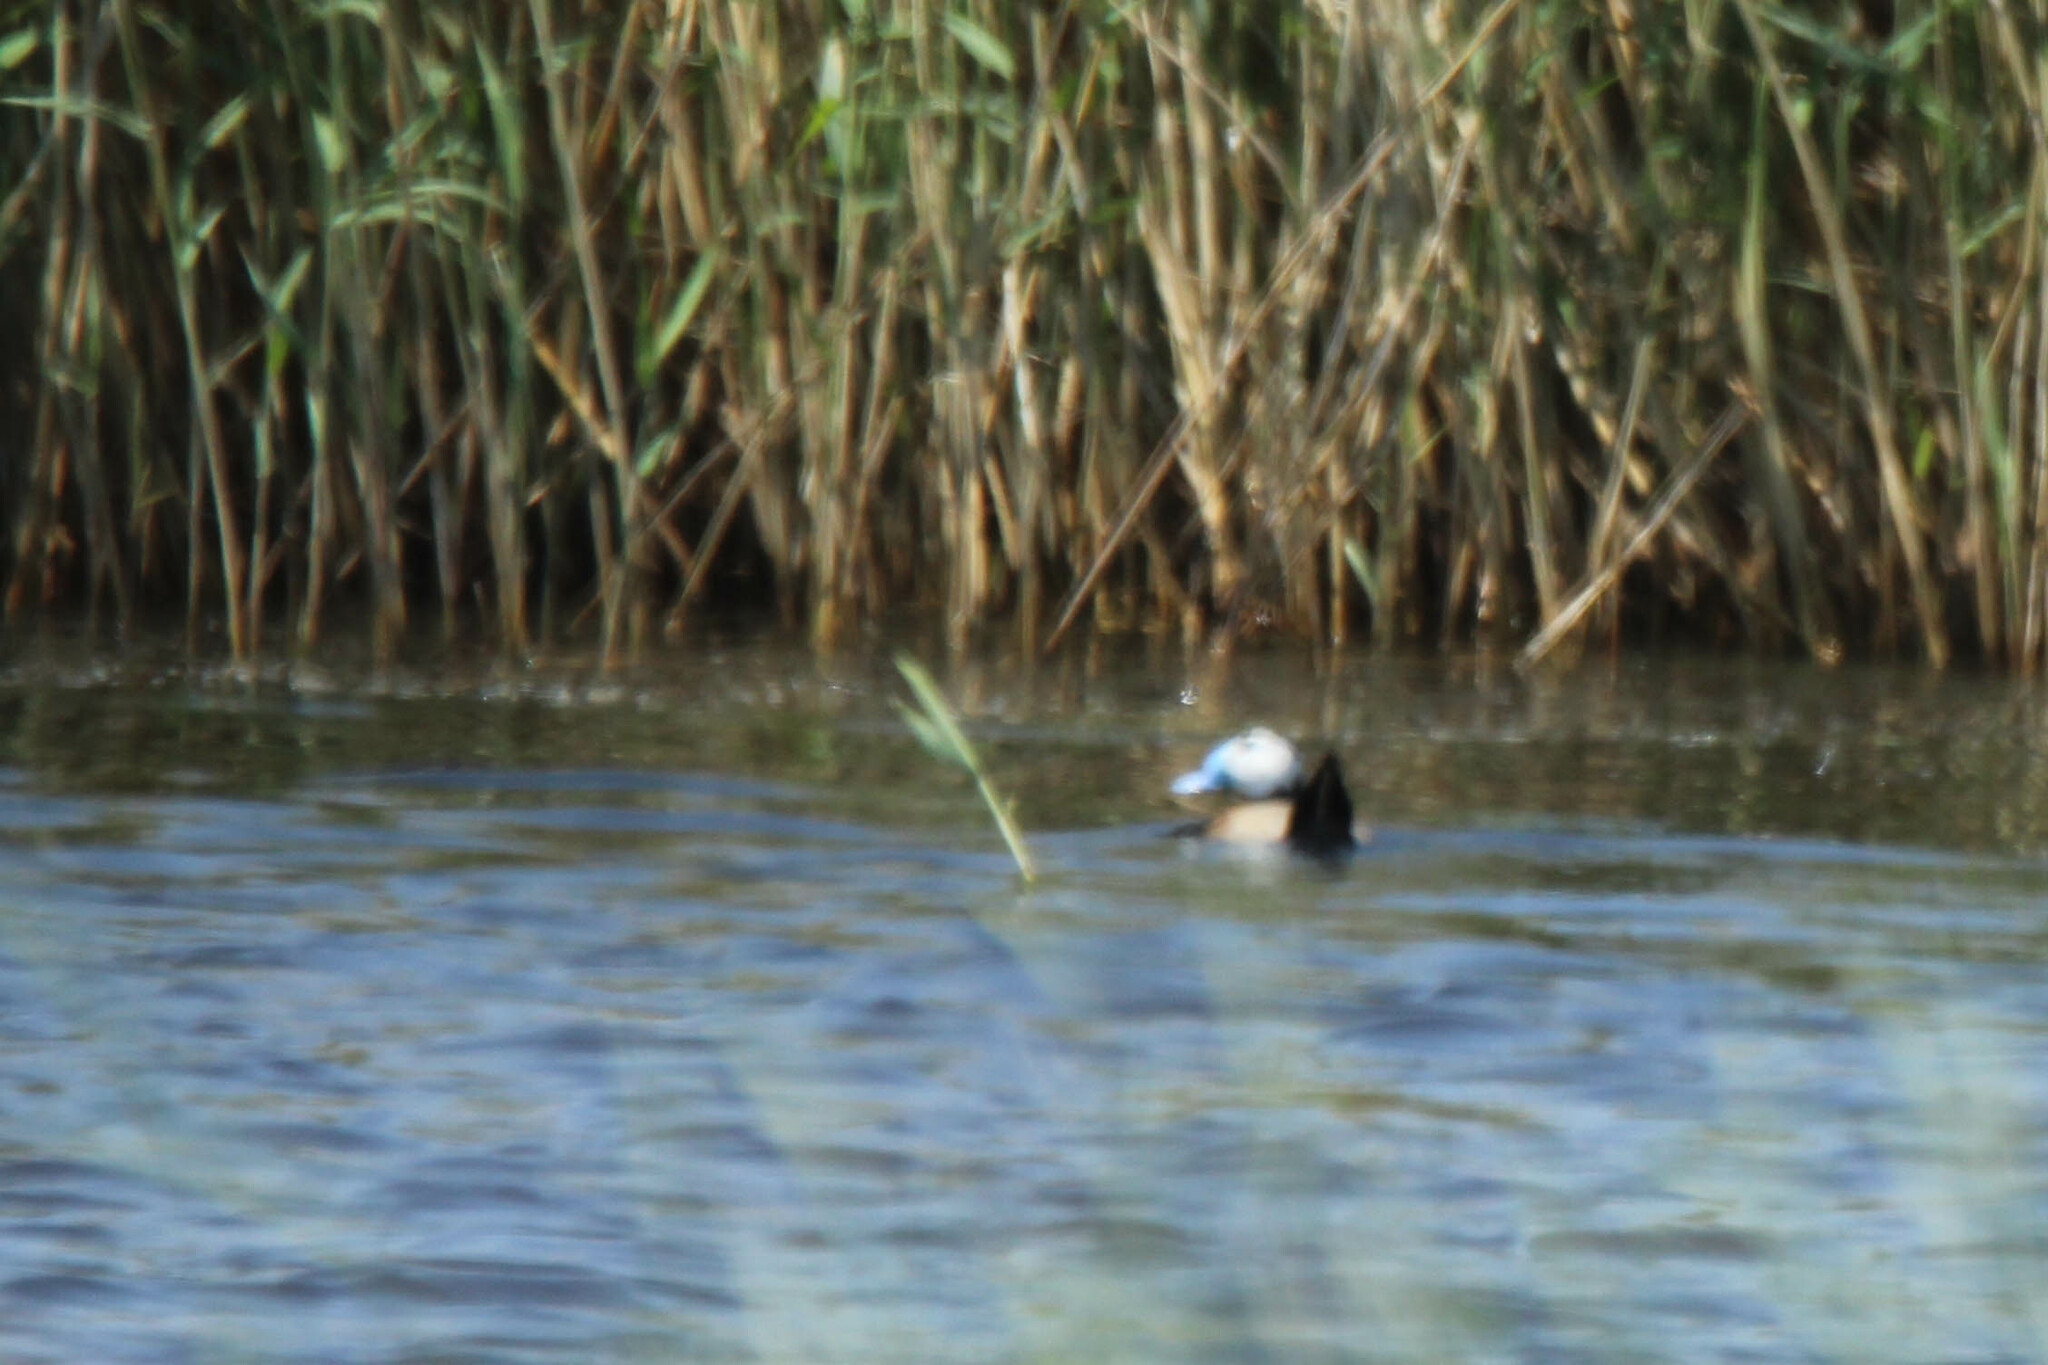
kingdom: Animalia
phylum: Chordata
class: Aves
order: Anseriformes
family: Anatidae
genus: Oxyura
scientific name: Oxyura leucocephala
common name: White-headed duck
